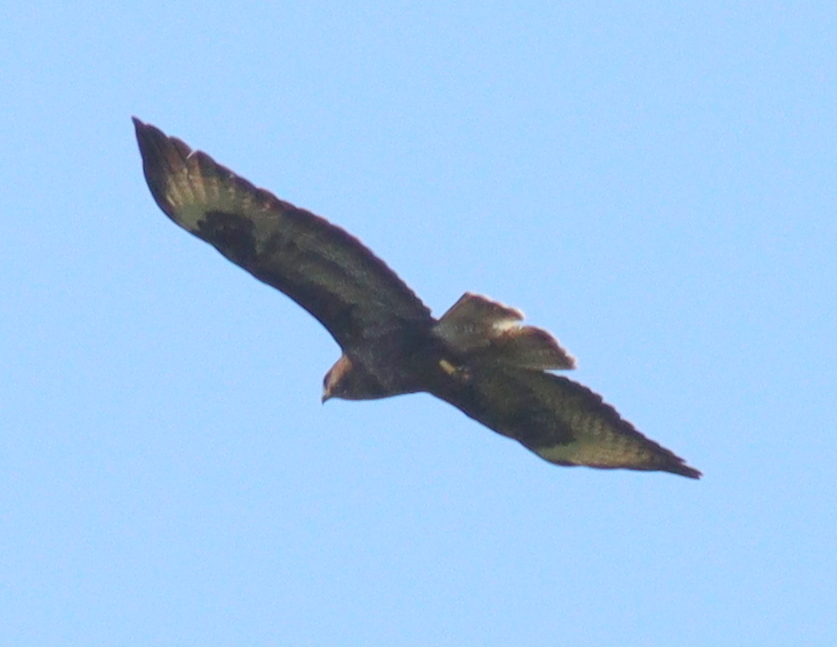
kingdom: Animalia
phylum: Chordata
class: Aves
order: Accipitriformes
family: Accipitridae
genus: Buteo
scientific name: Buteo buteo
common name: Common buzzard
